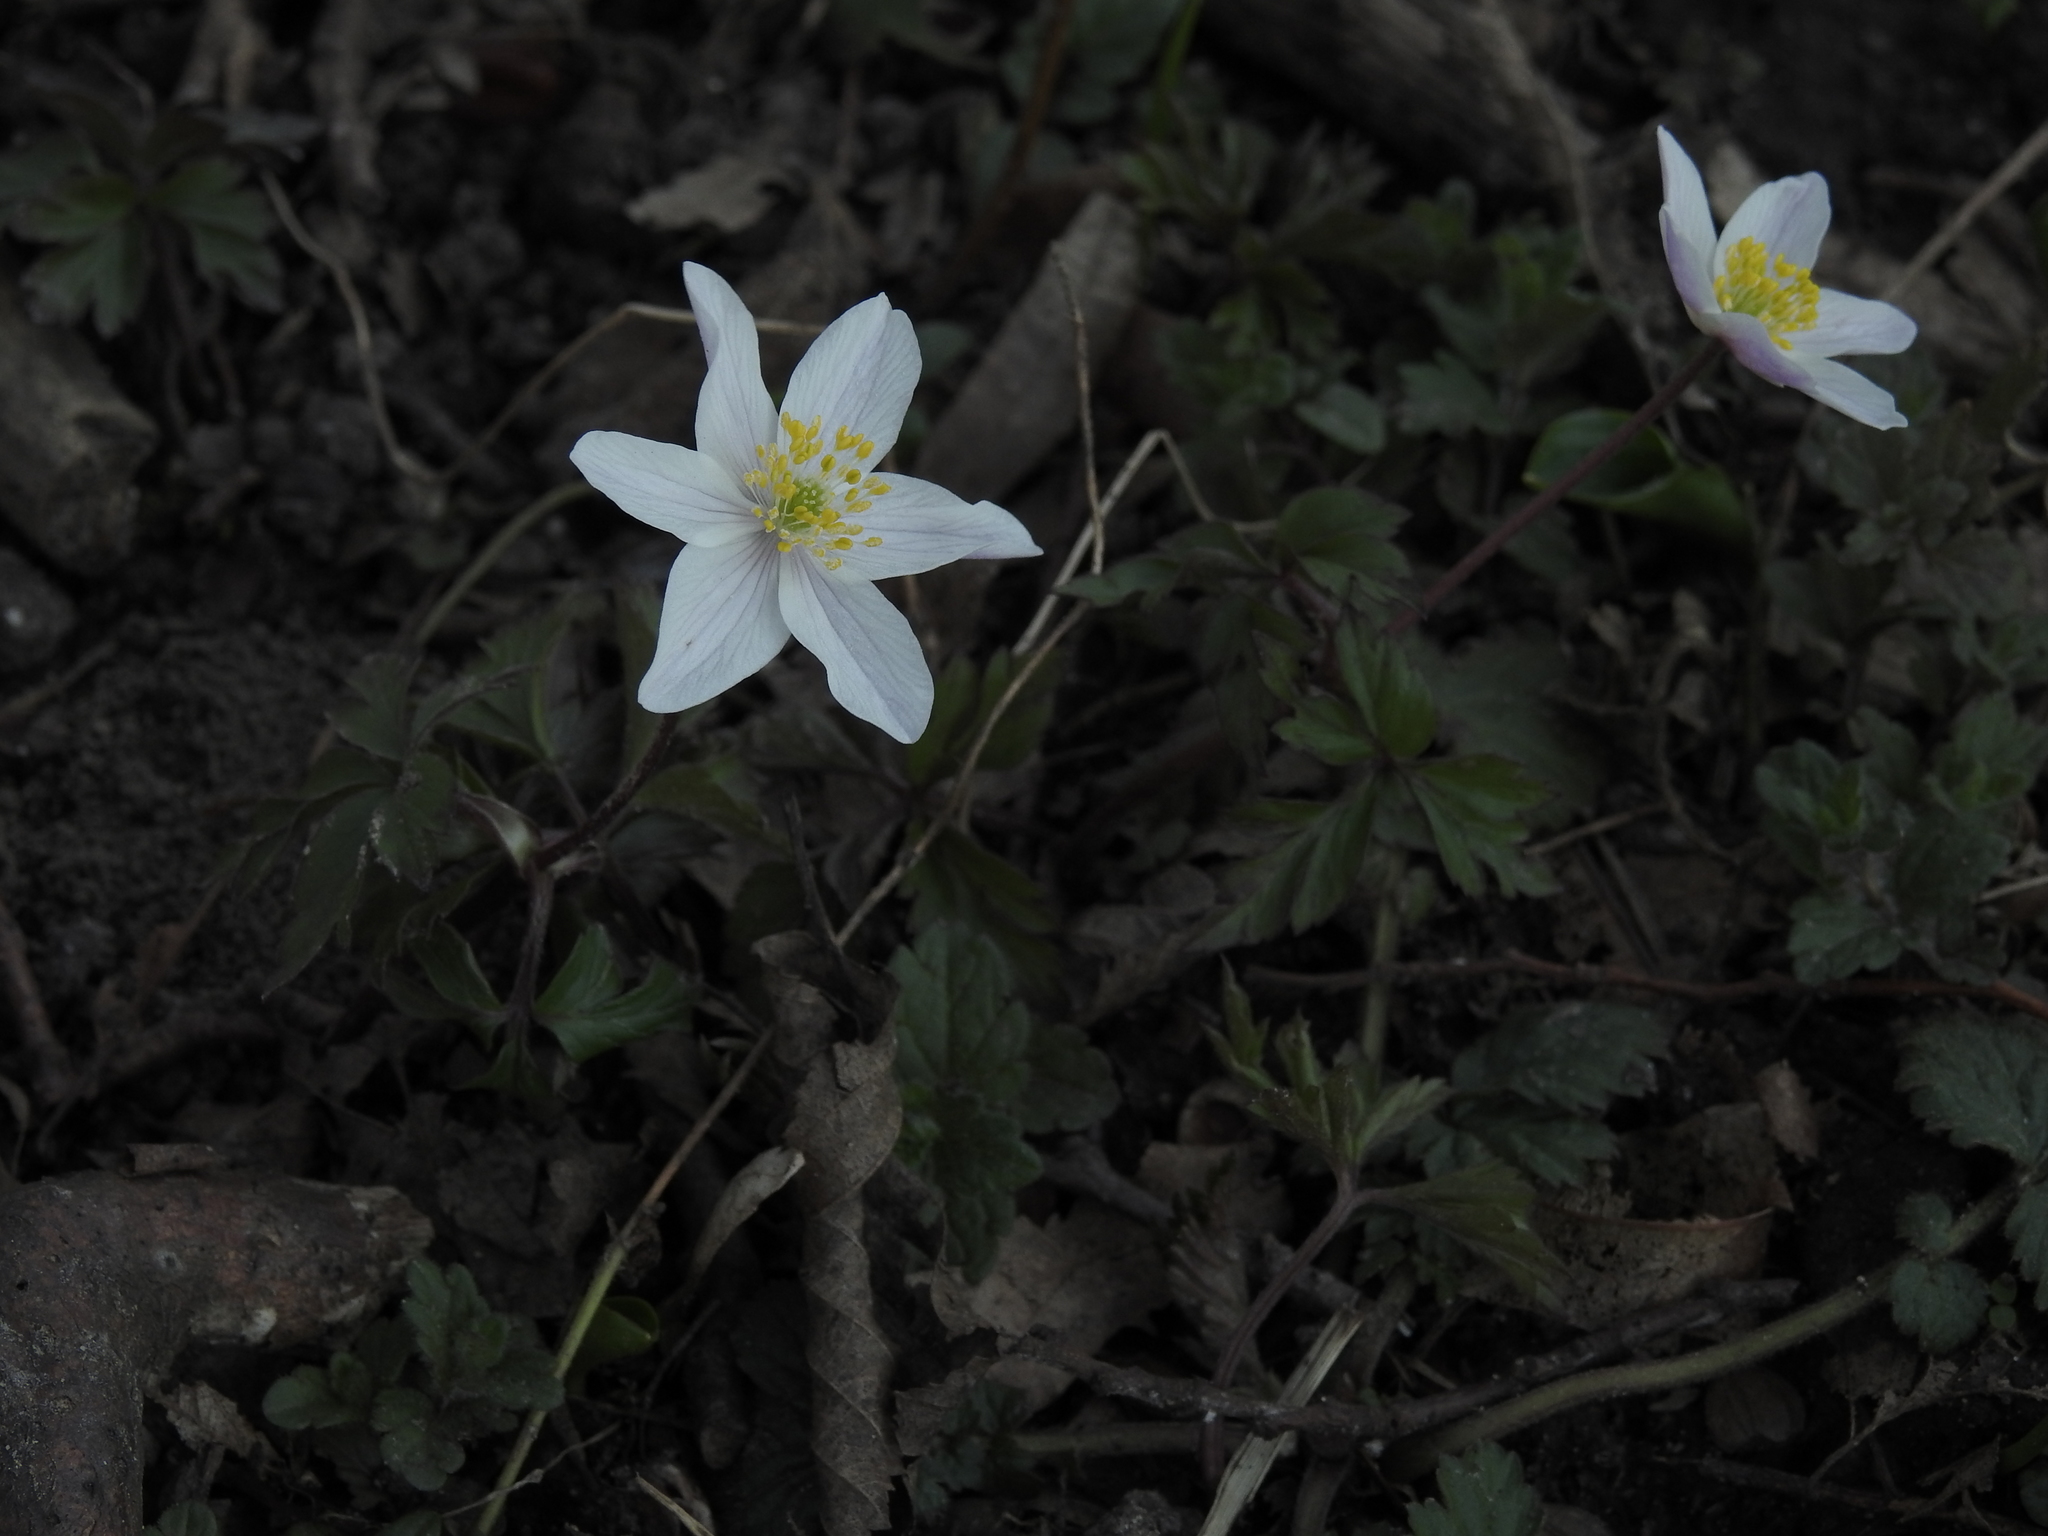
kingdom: Plantae
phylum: Tracheophyta
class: Magnoliopsida
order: Ranunculales
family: Ranunculaceae
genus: Anemone
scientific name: Anemone nemorosa
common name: Wood anemone
